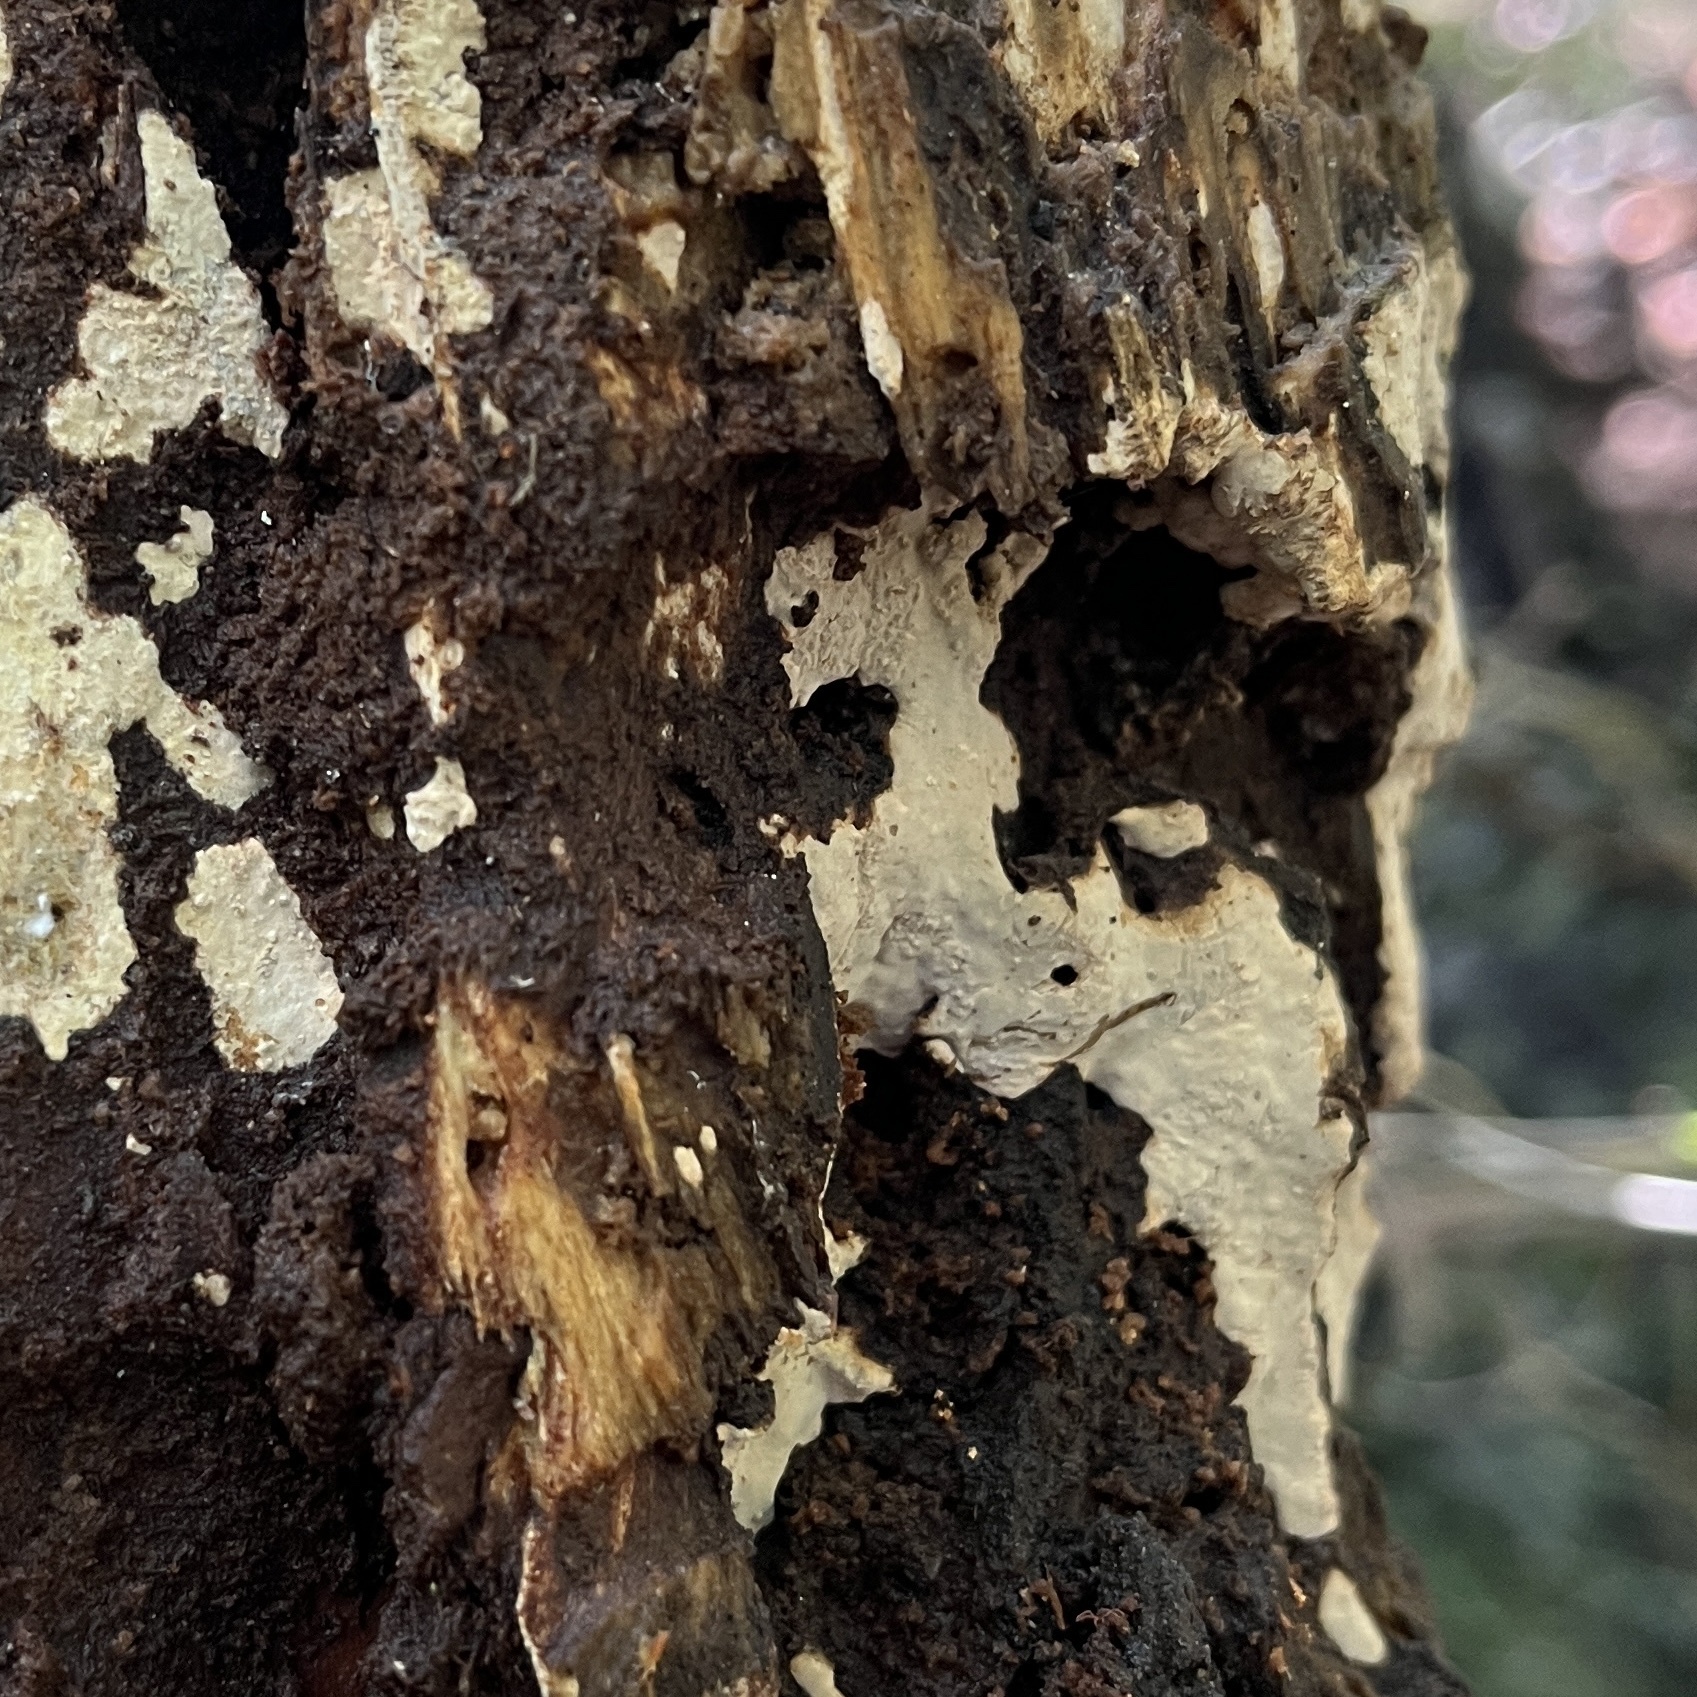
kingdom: Fungi
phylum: Basidiomycota
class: Agaricomycetes
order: Russulales
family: Stereaceae
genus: Gloeocystidiellum
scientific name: Gloeocystidiellum rajchenbergii
